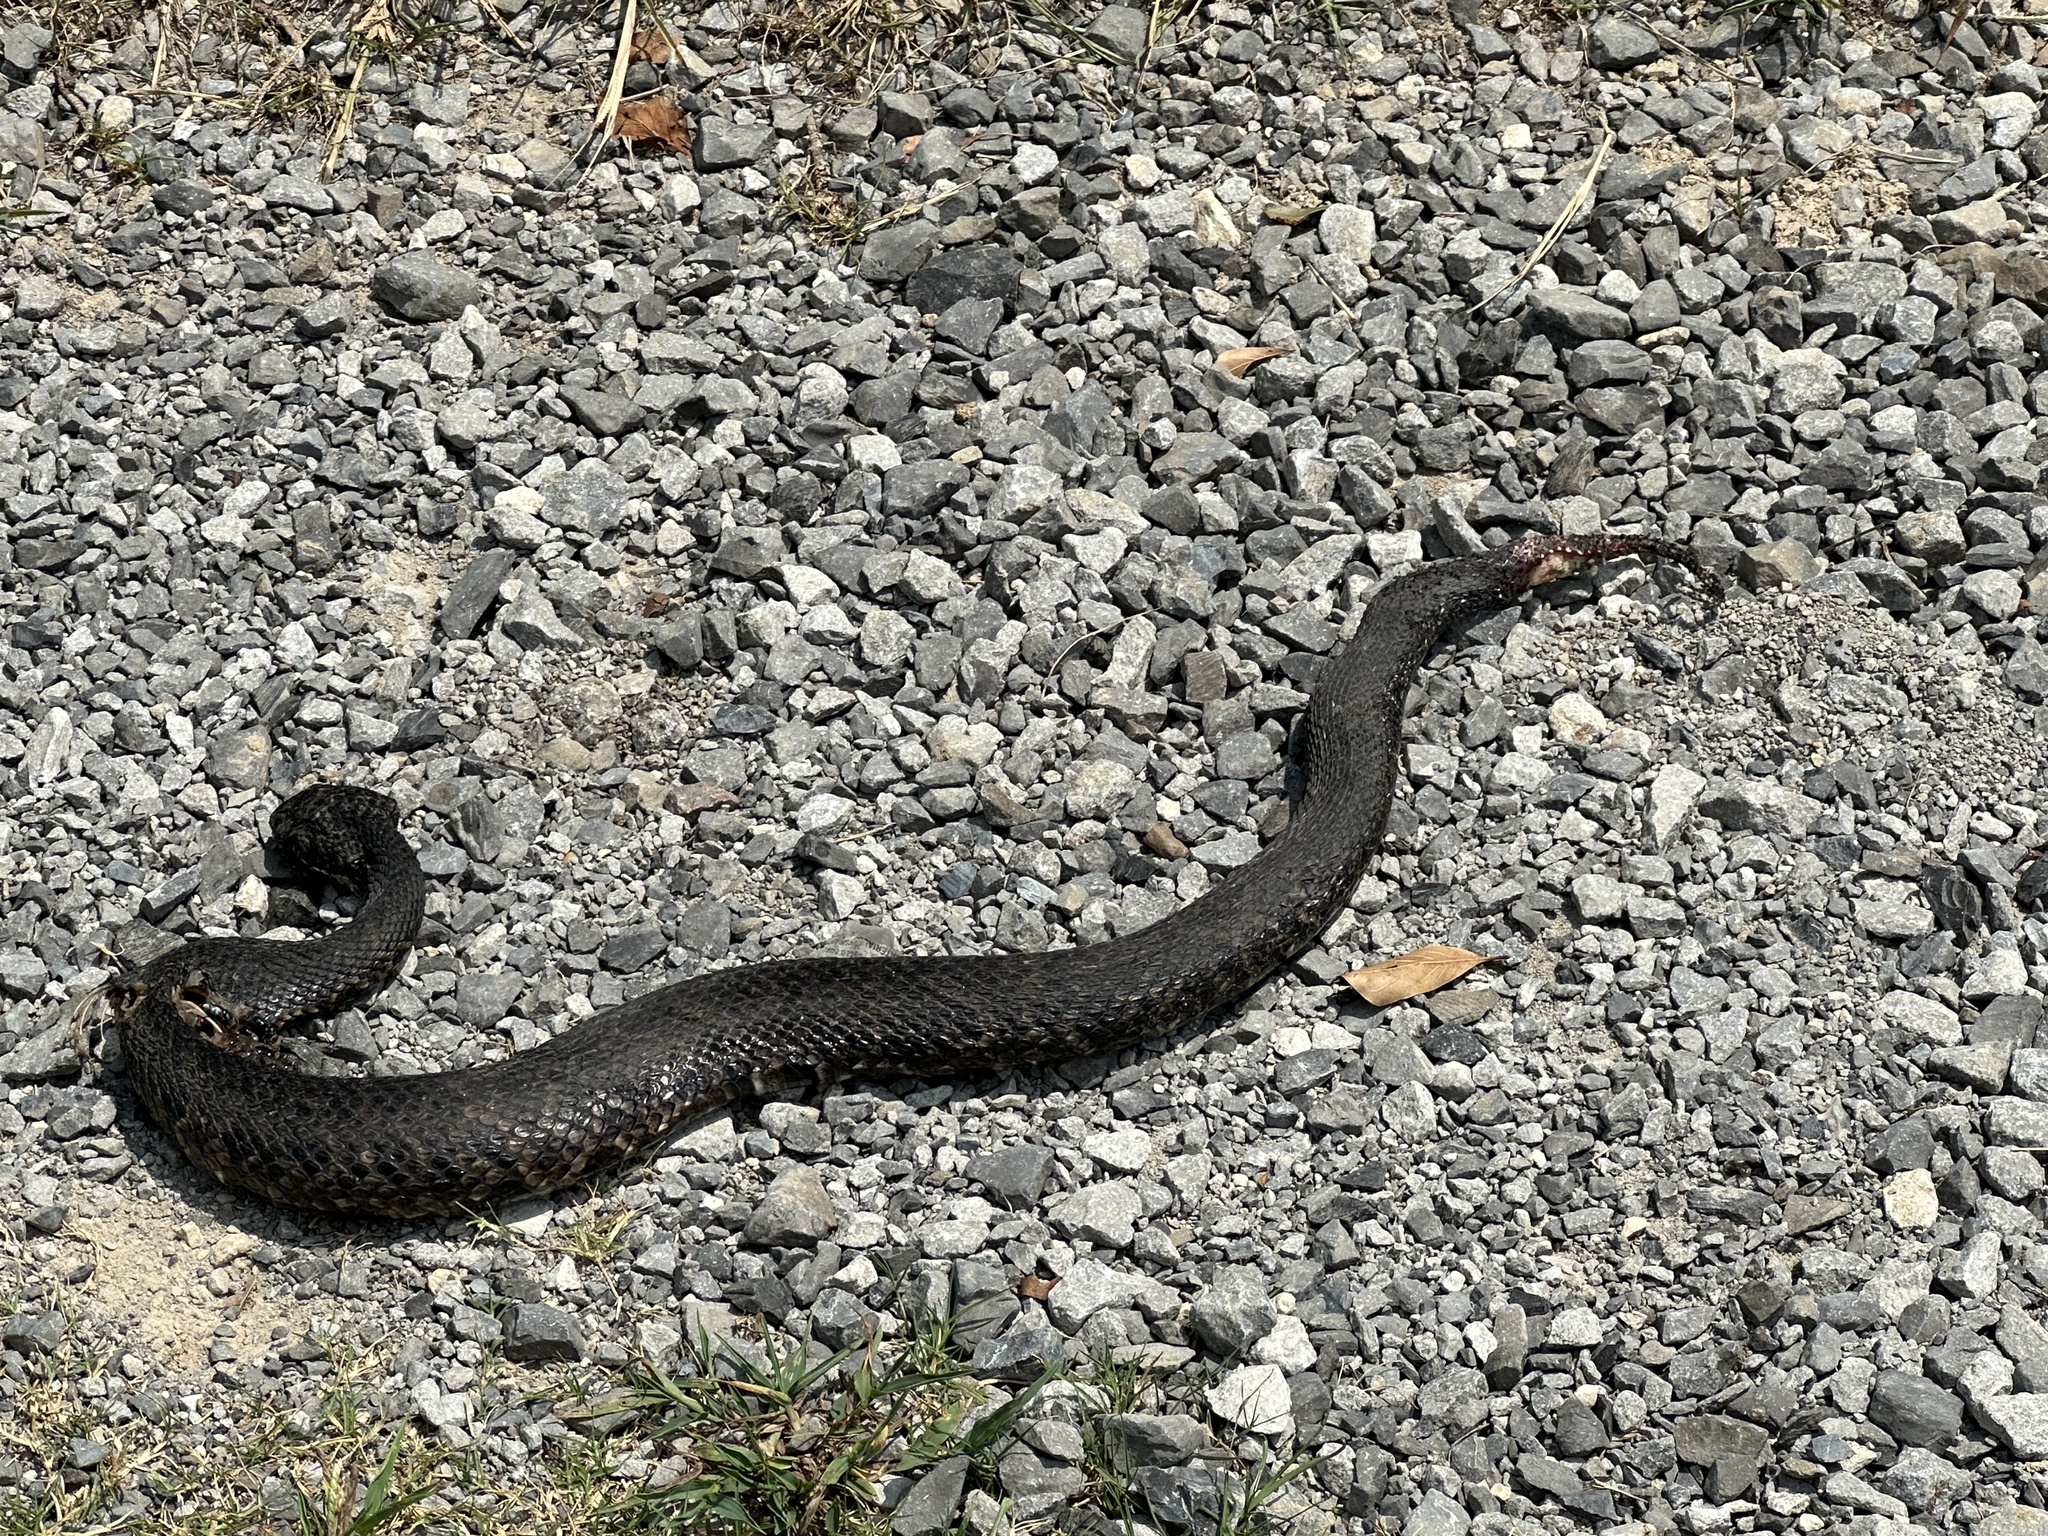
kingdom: Animalia
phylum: Chordata
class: Squamata
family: Viperidae
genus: Agkistrodon
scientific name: Agkistrodon piscivorus
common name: Cottonmouth
